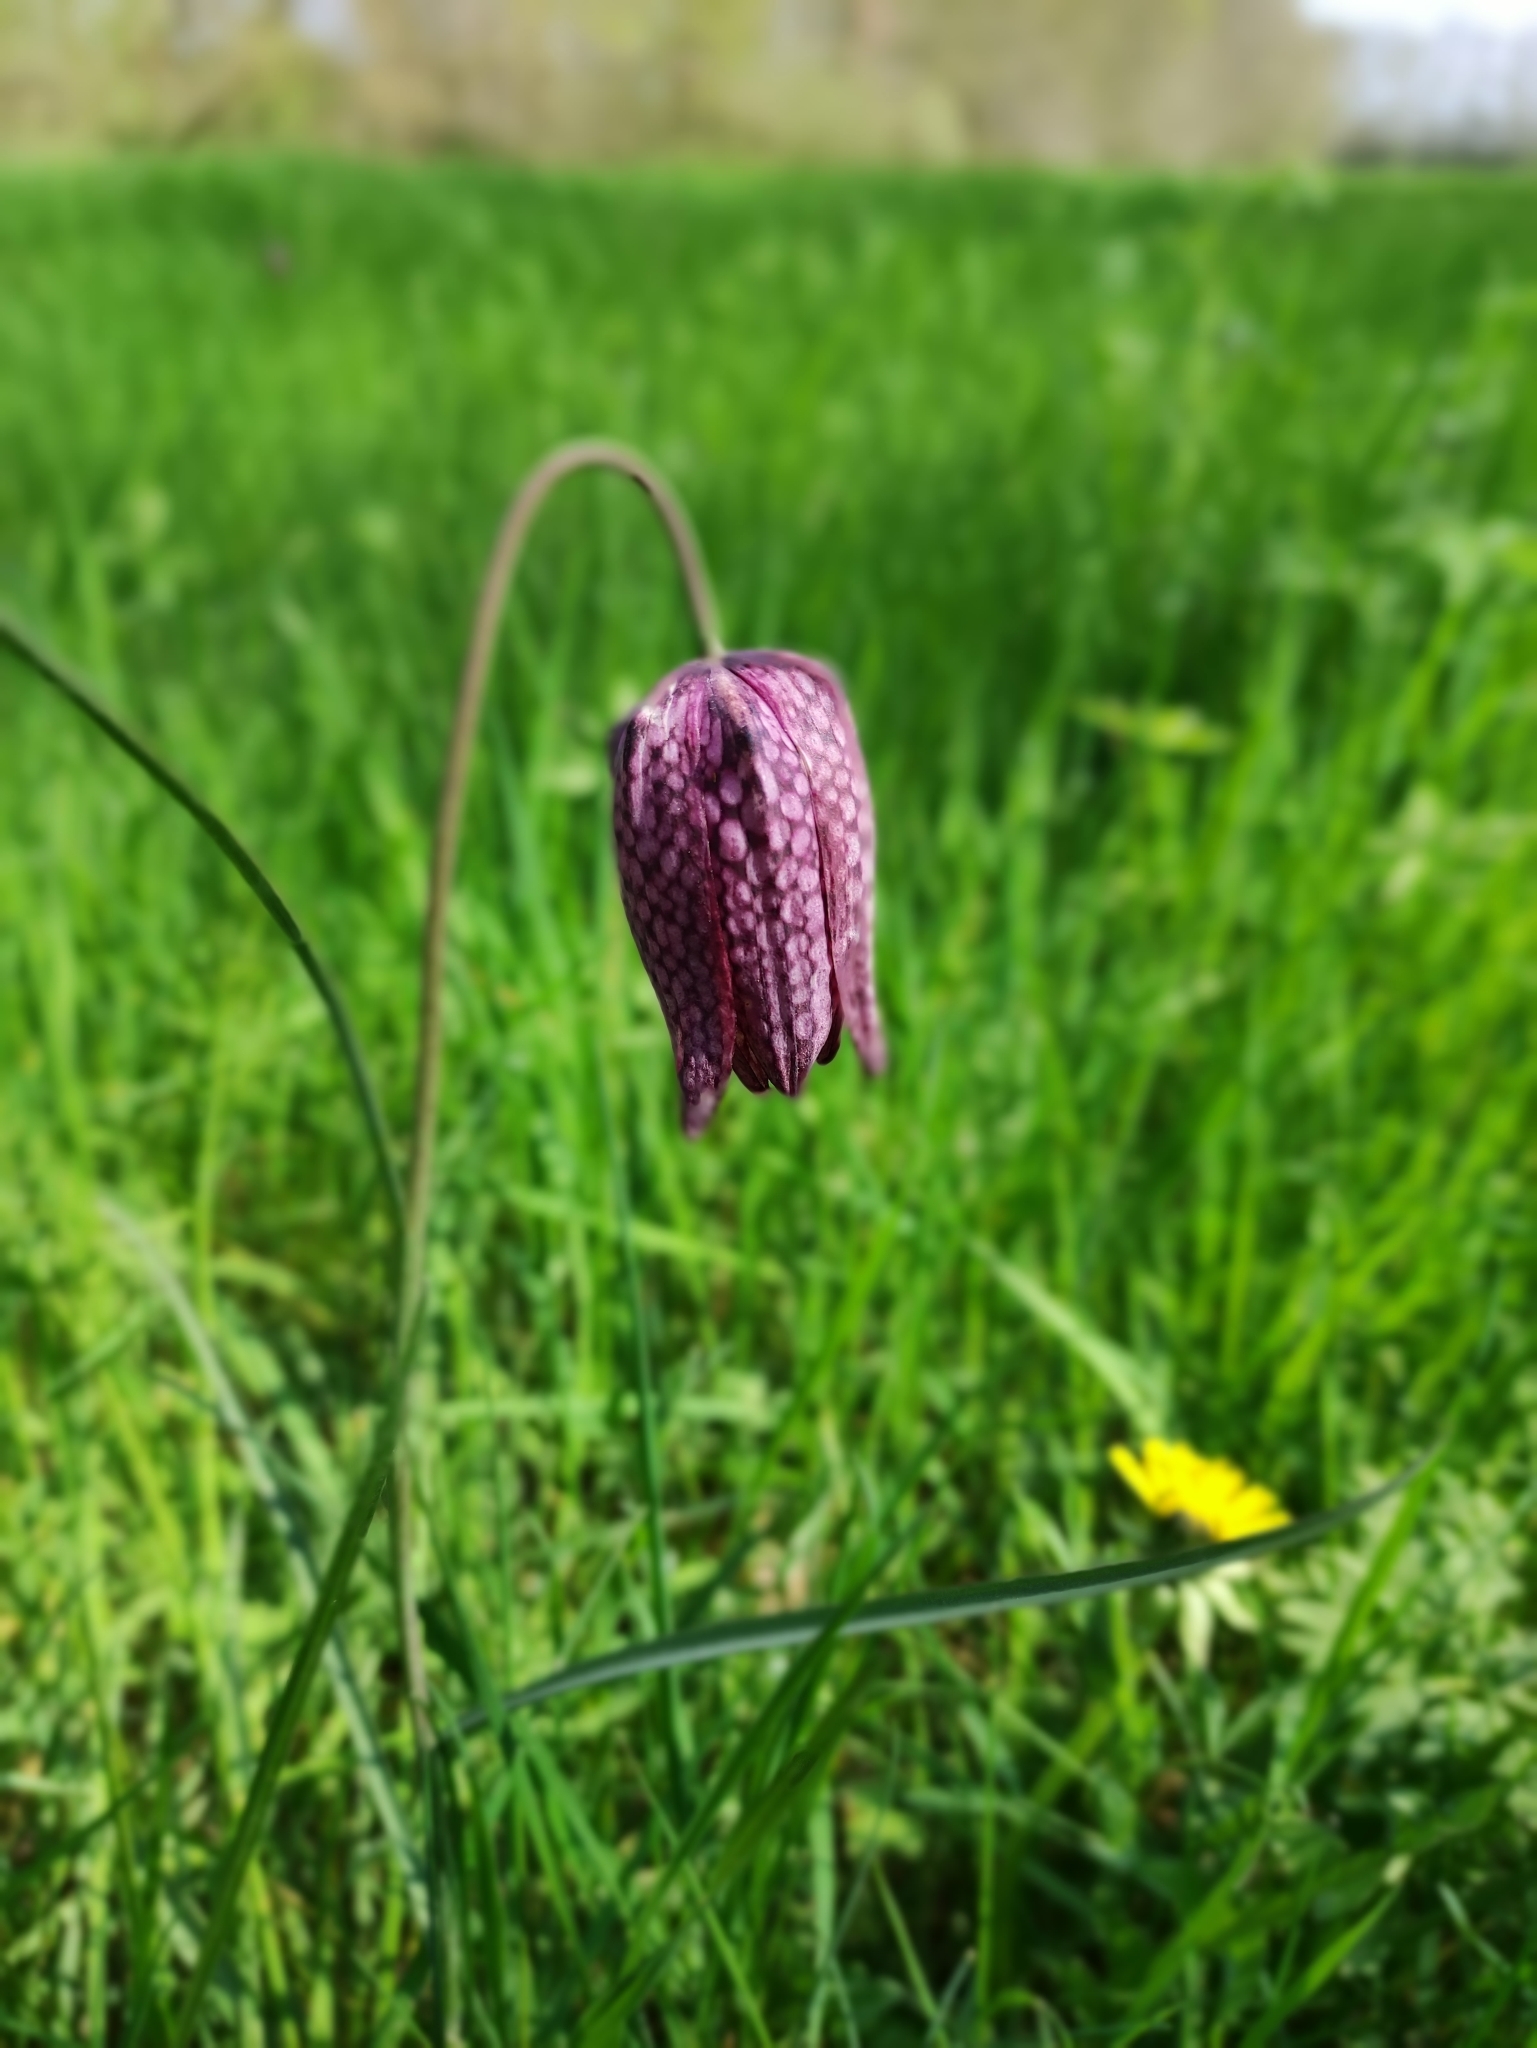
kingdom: Plantae
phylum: Tracheophyta
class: Liliopsida
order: Liliales
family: Liliaceae
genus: Fritillaria
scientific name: Fritillaria meleagris
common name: Fritillary
